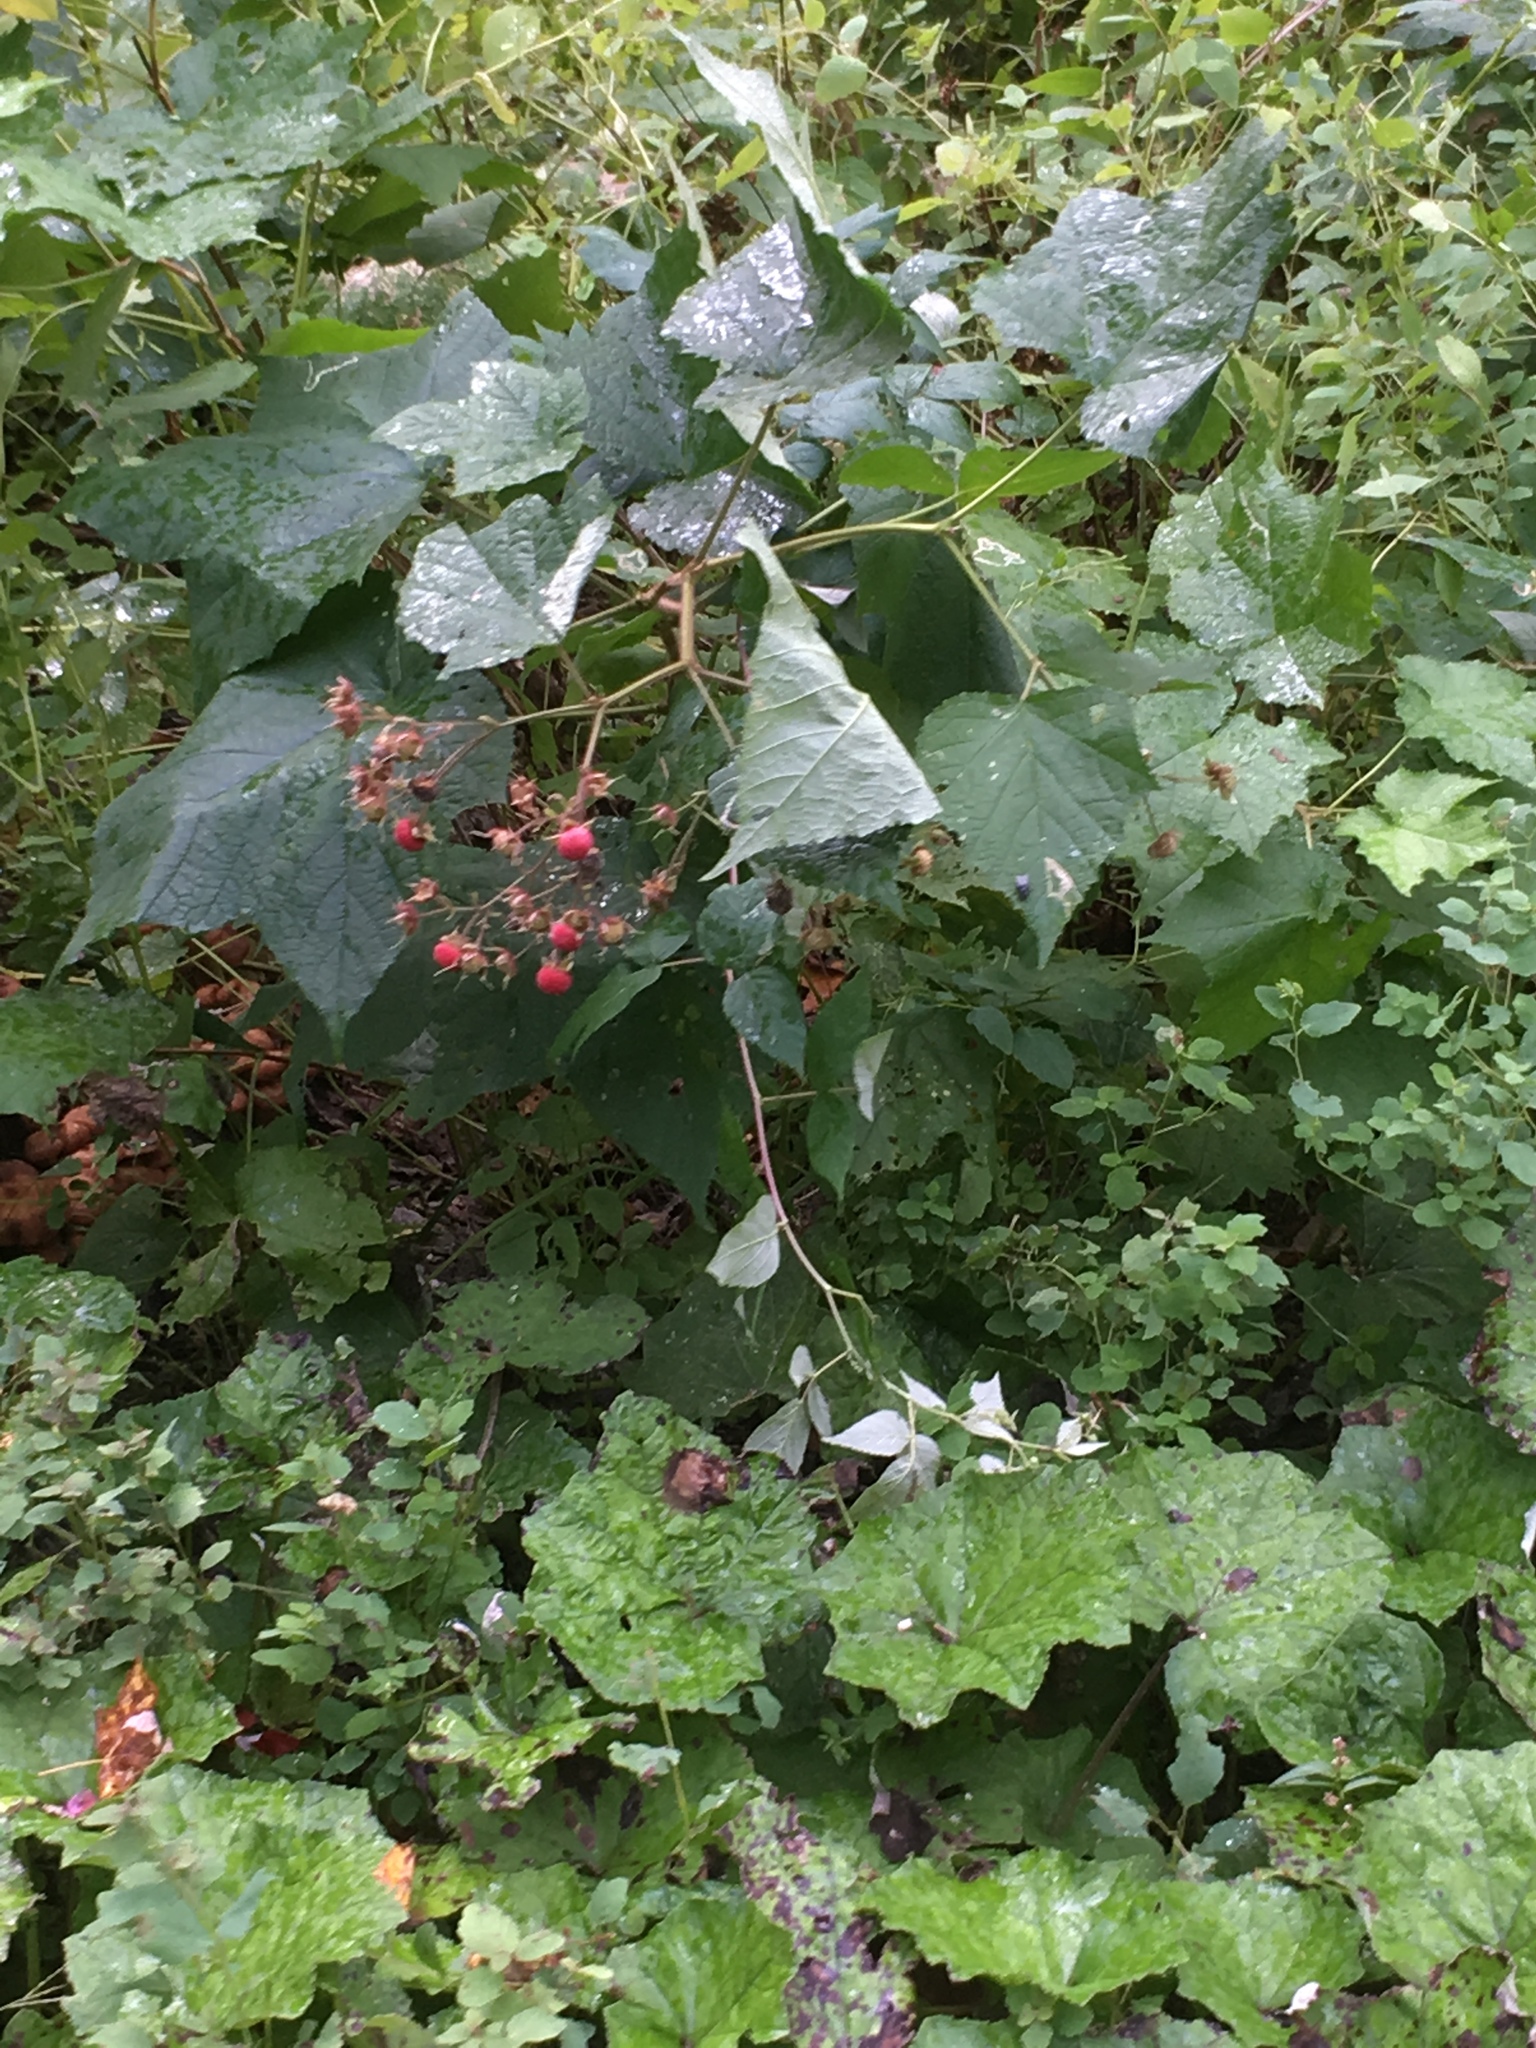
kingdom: Plantae
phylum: Tracheophyta
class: Magnoliopsida
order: Rosales
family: Rosaceae
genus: Rubus
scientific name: Rubus odoratus
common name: Purple-flowered raspberry
